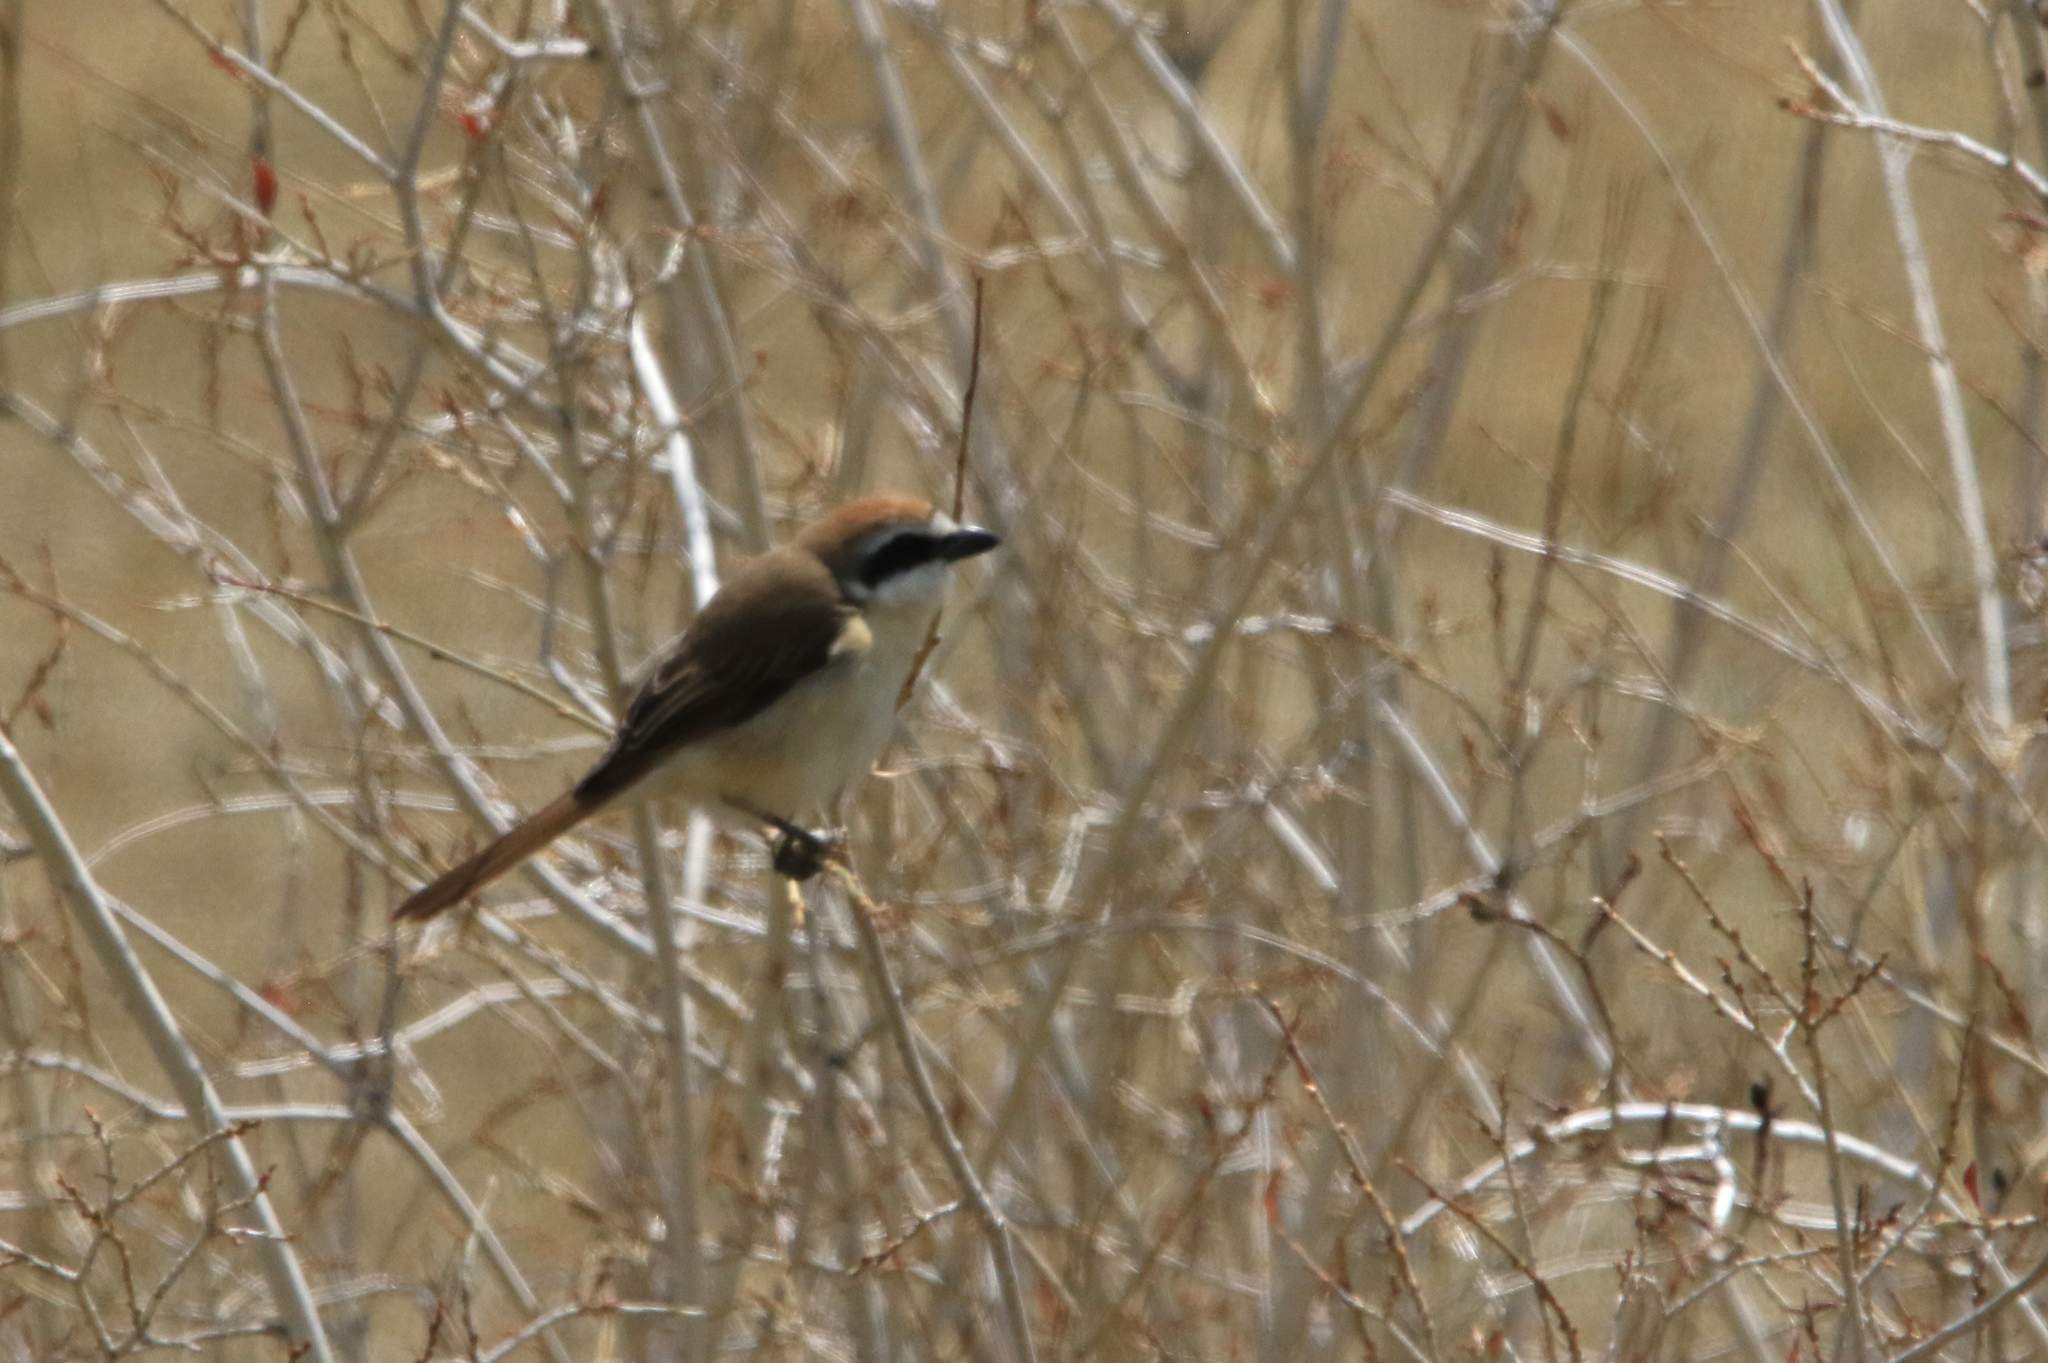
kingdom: Animalia
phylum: Chordata
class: Aves
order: Passeriformes
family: Laniidae
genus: Lanius
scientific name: Lanius cristatus
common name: Brown shrike
